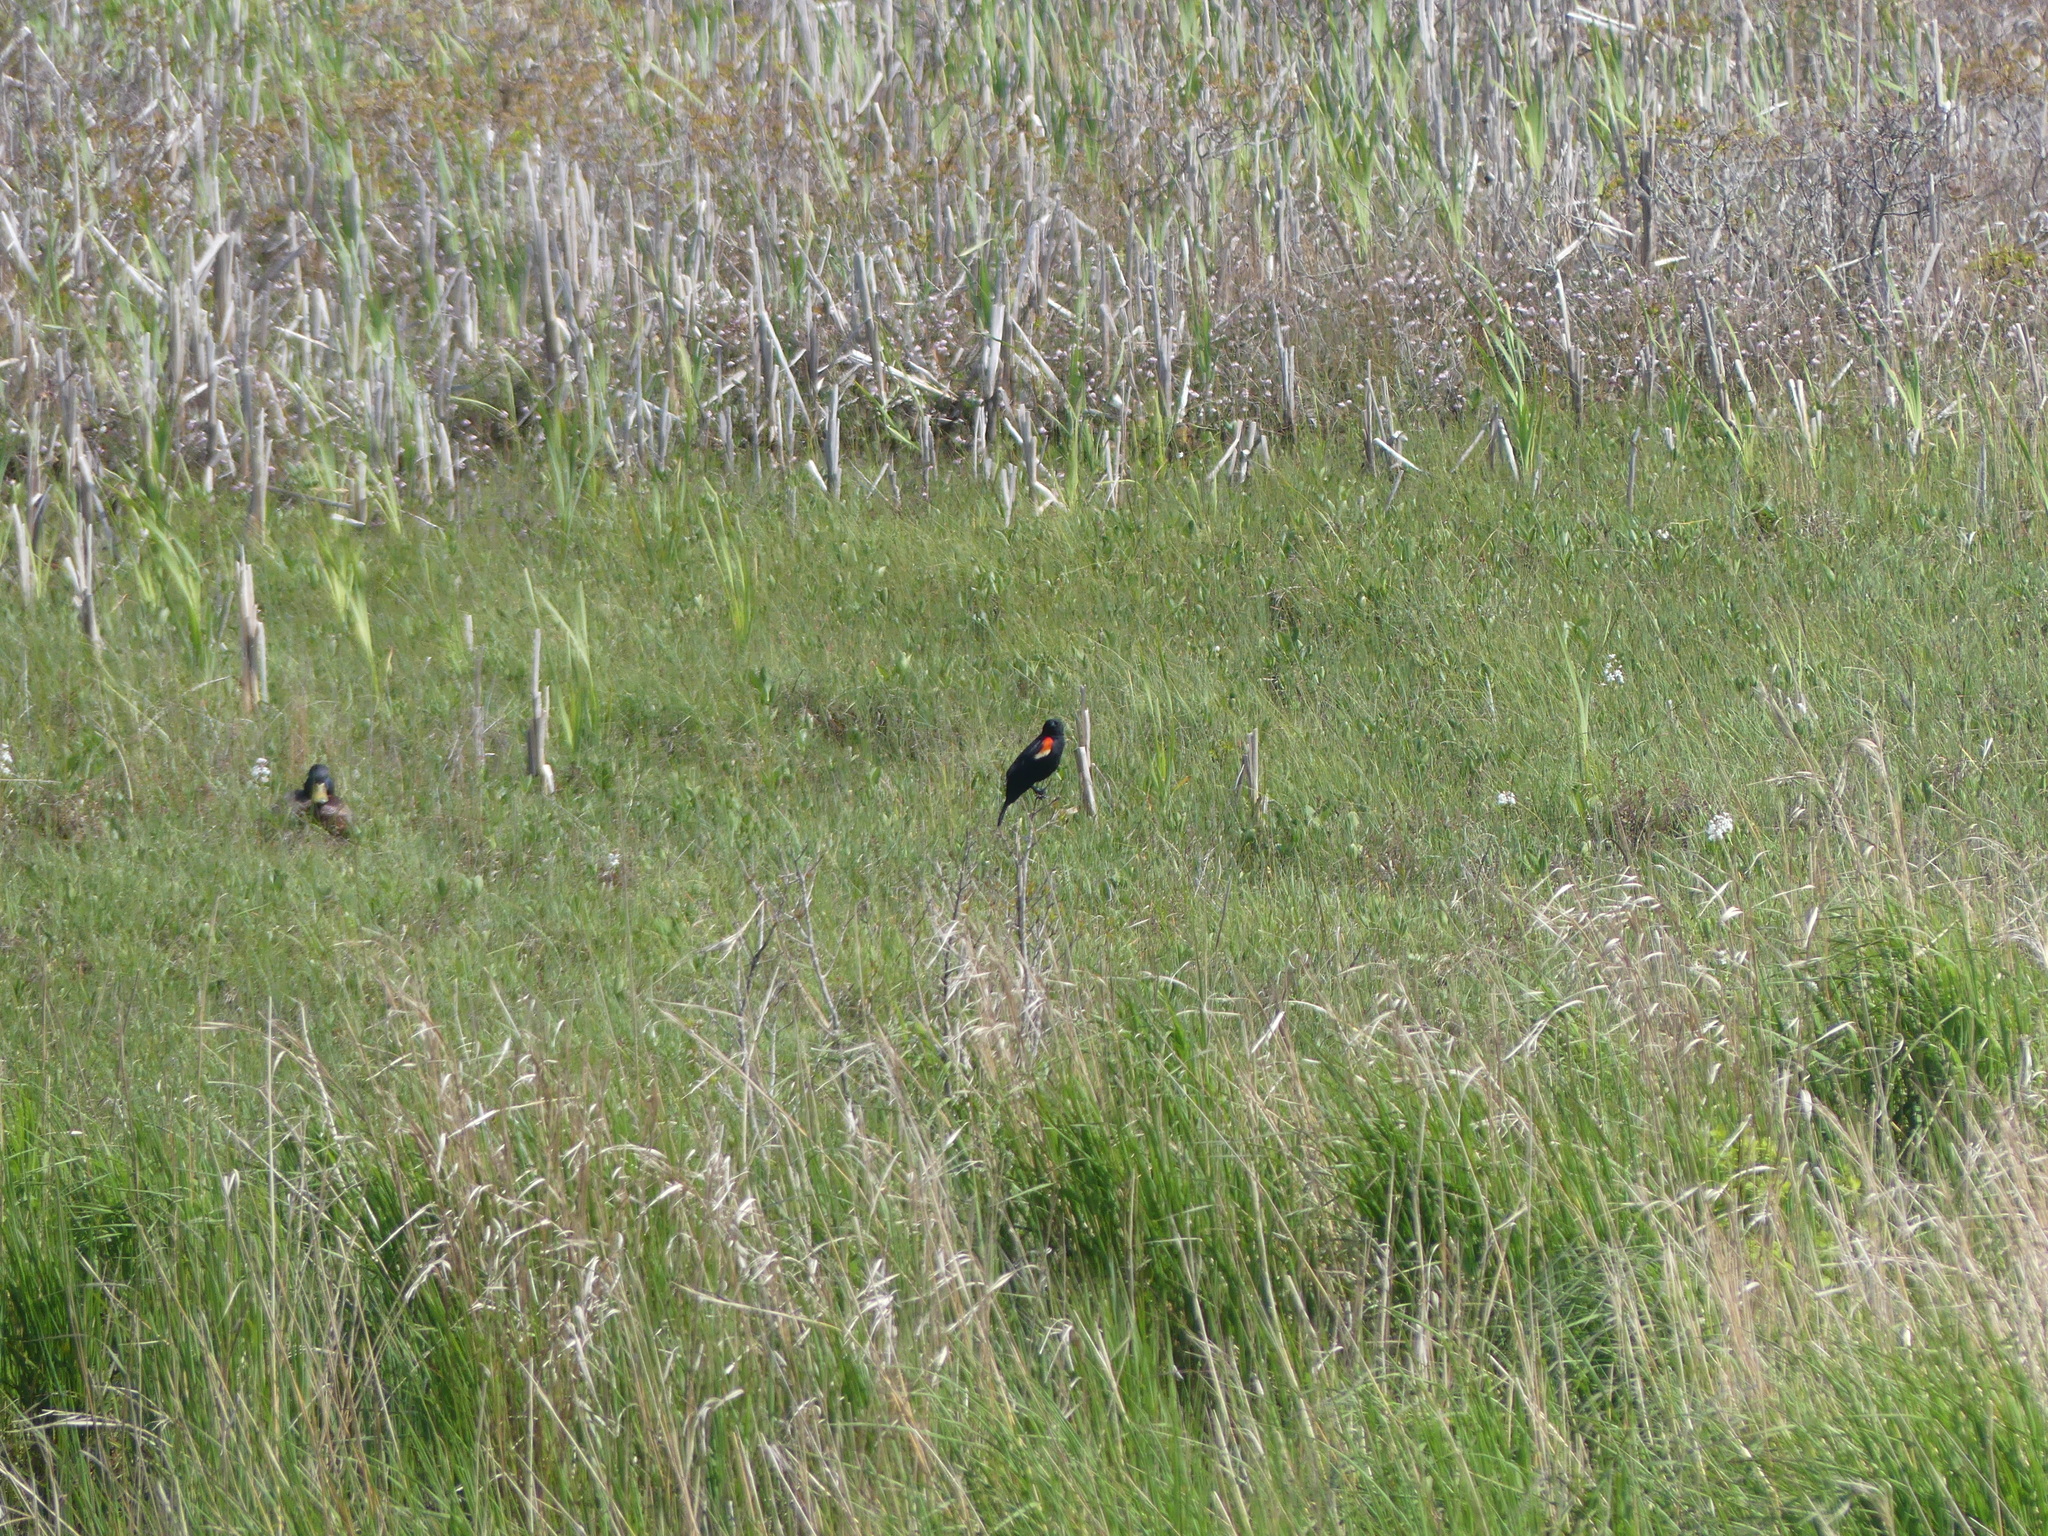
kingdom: Animalia
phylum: Chordata
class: Aves
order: Passeriformes
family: Icteridae
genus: Agelaius
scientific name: Agelaius phoeniceus
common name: Red-winged blackbird
